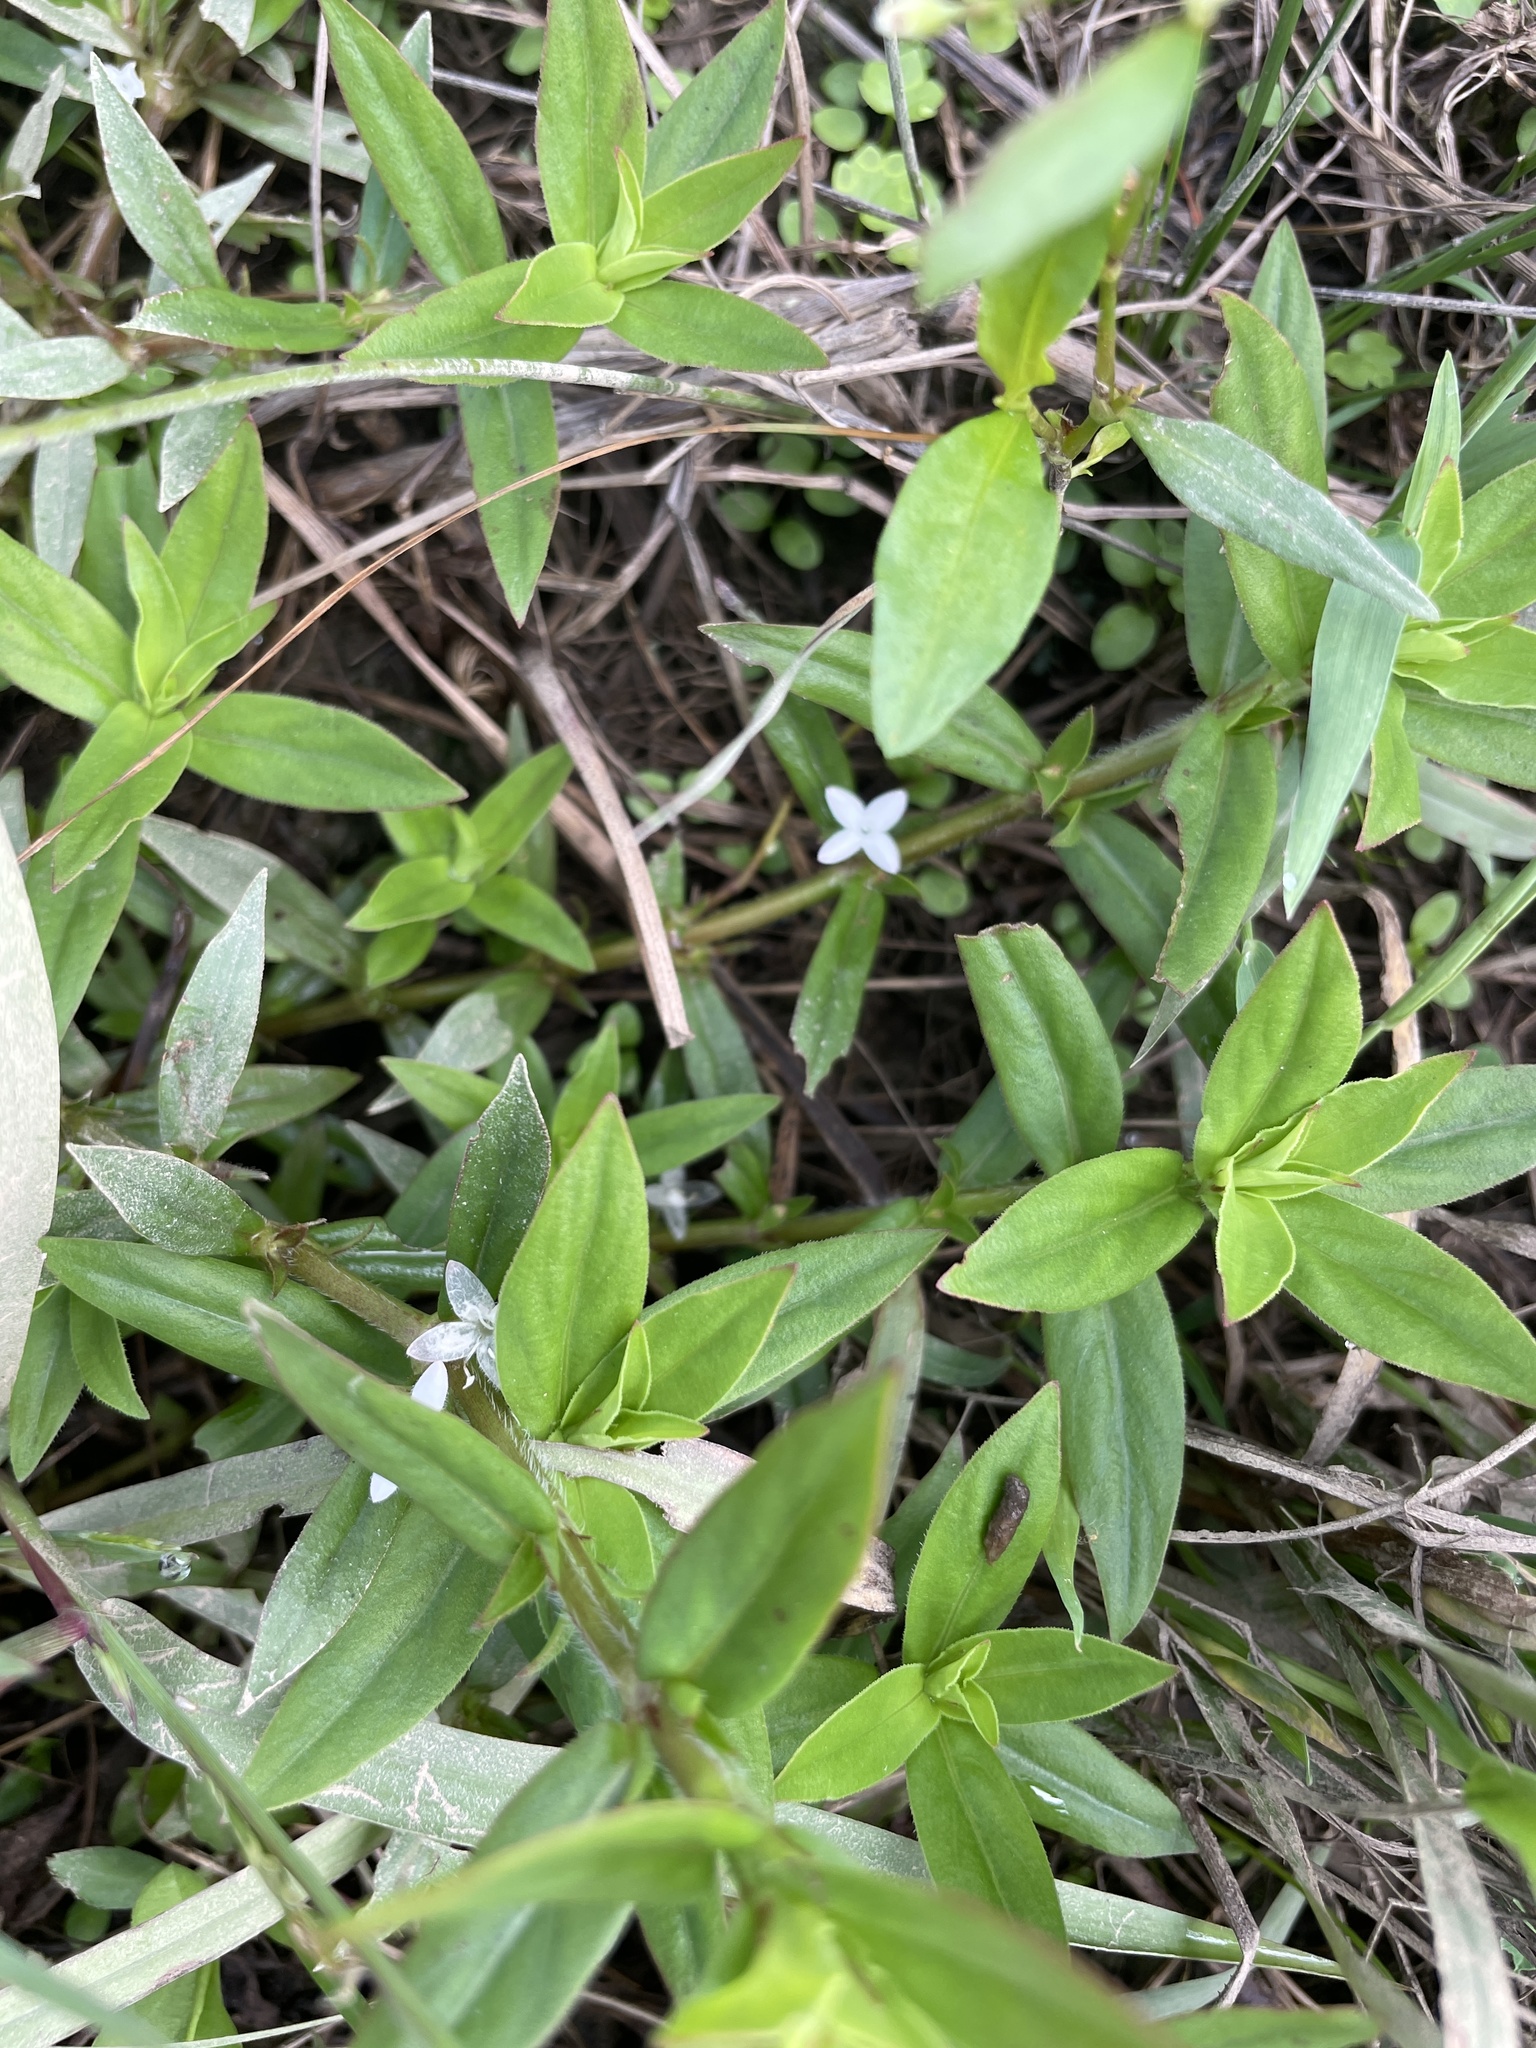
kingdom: Plantae
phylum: Tracheophyta
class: Magnoliopsida
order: Gentianales
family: Rubiaceae
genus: Diodia
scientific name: Diodia virginiana
